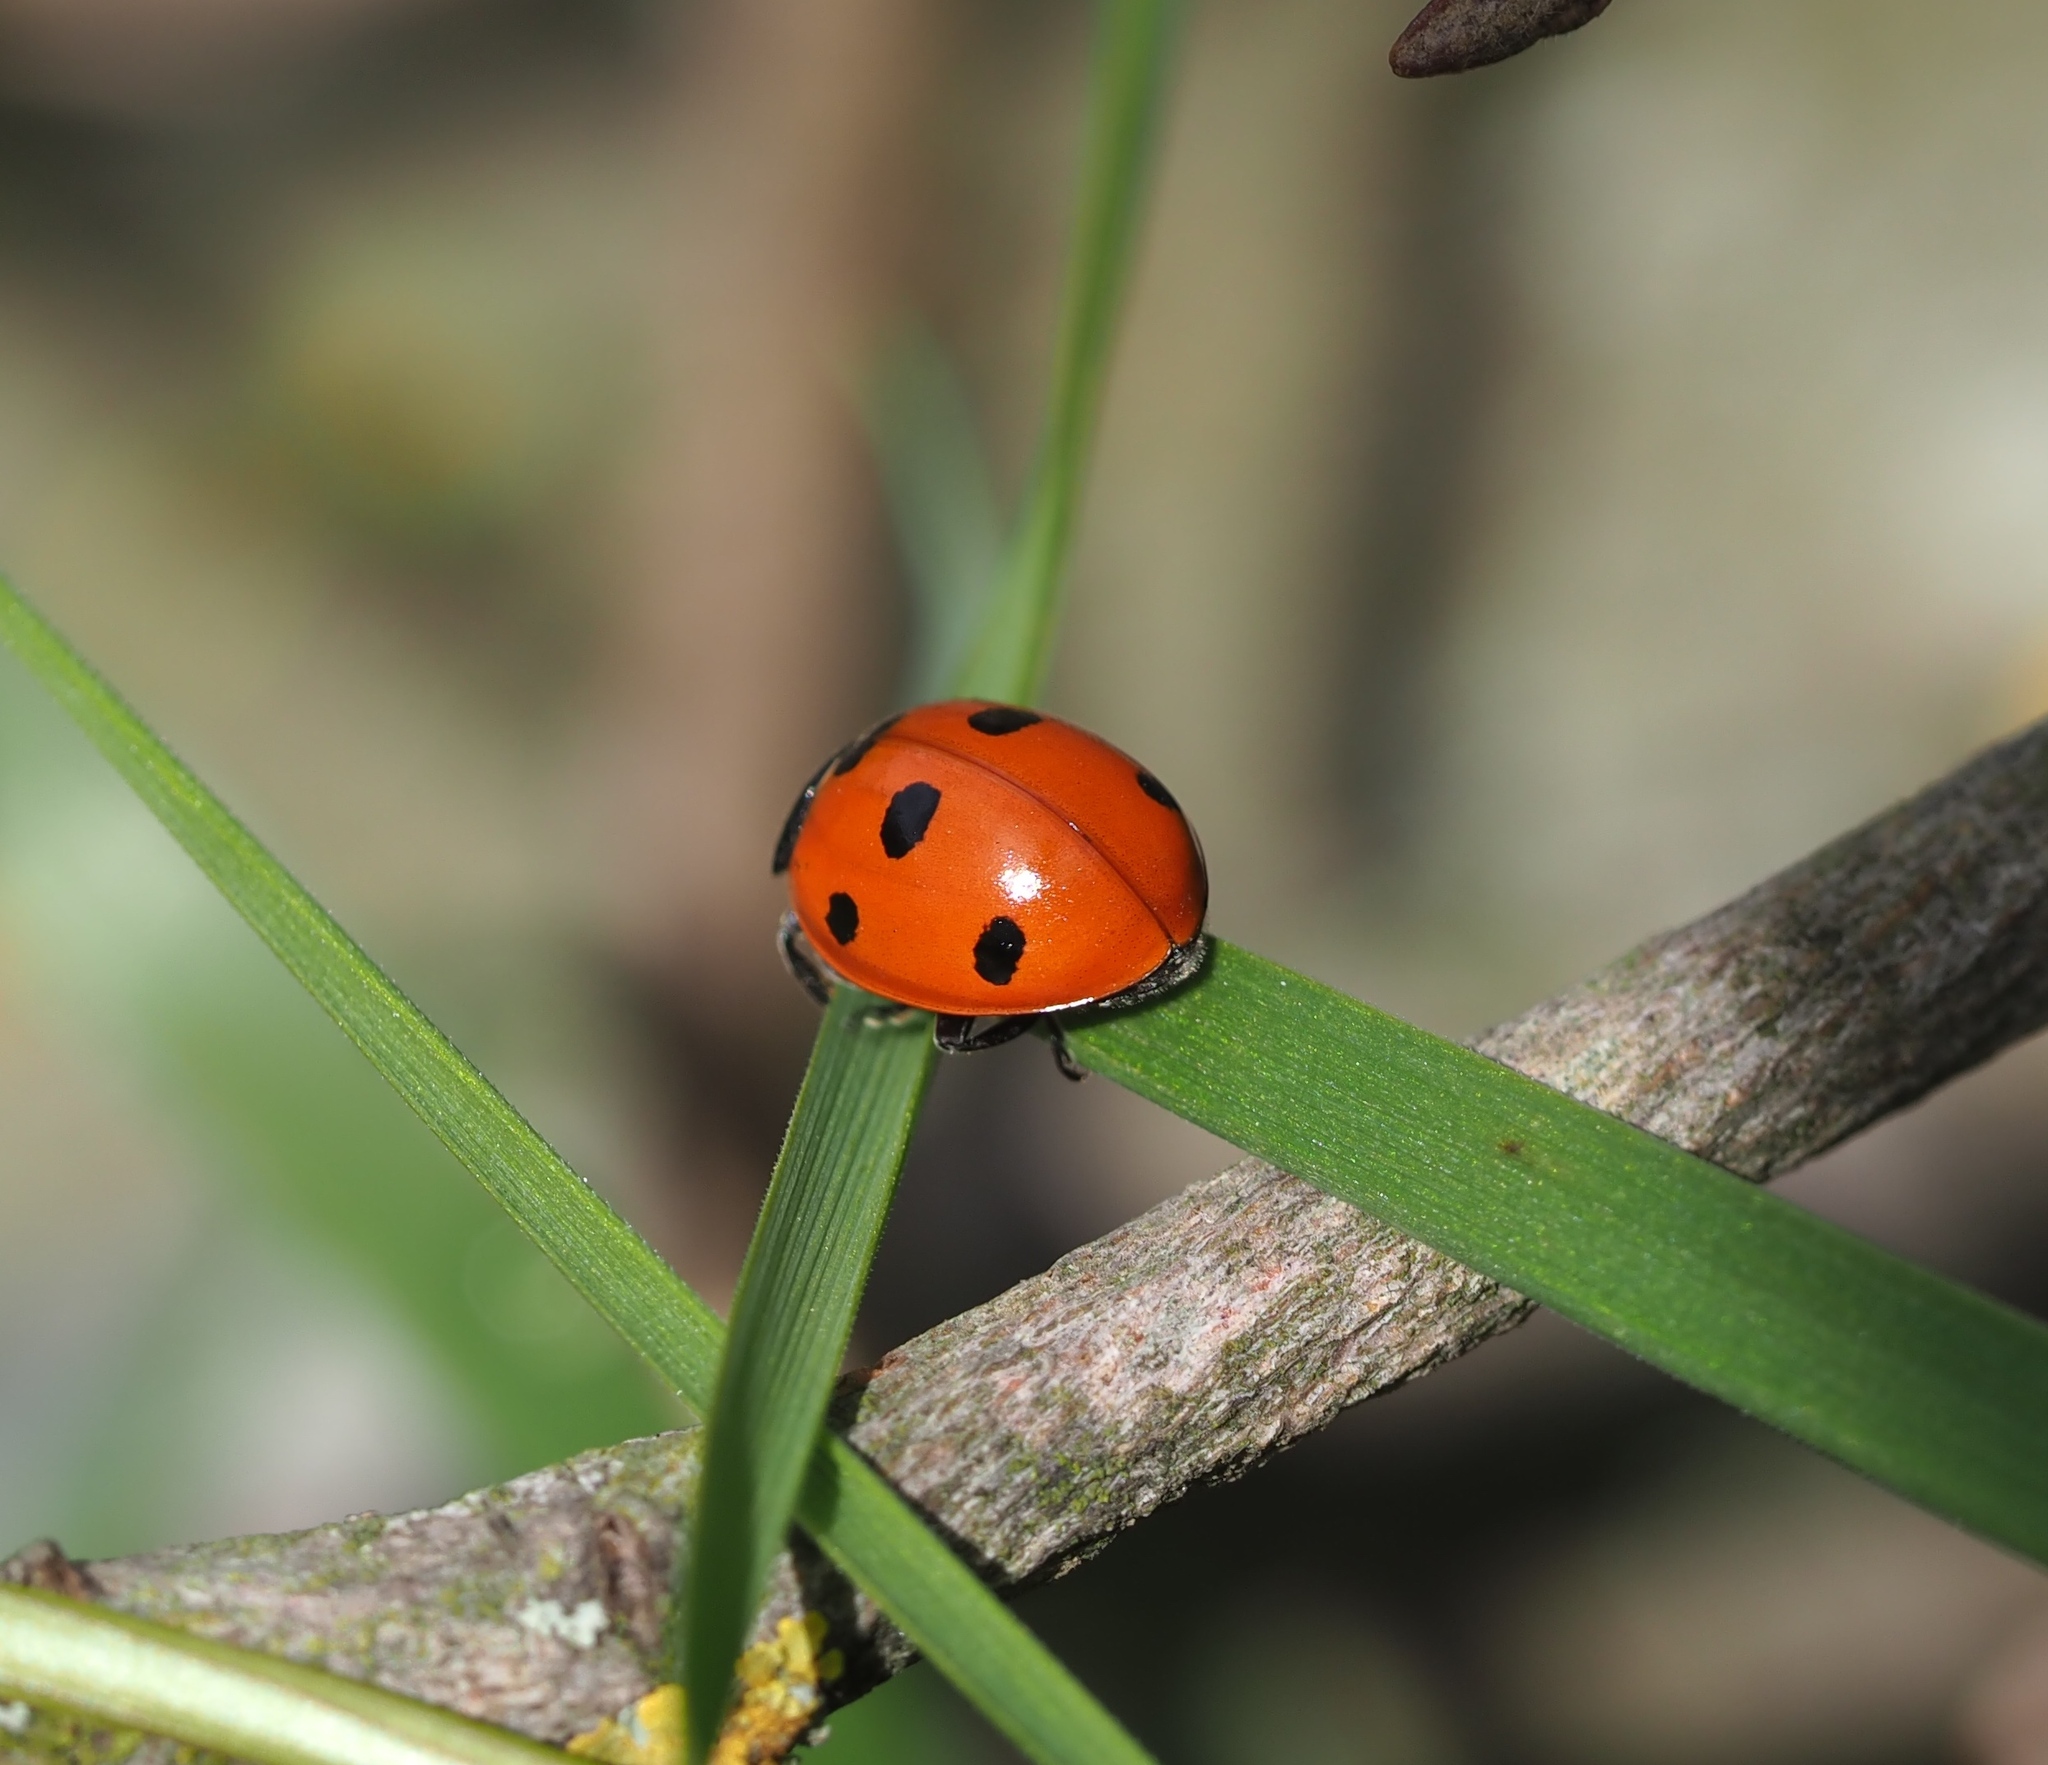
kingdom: Animalia
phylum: Arthropoda
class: Insecta
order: Coleoptera
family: Coccinellidae
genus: Coccinella
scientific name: Coccinella septempunctata
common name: Sevenspotted lady beetle
